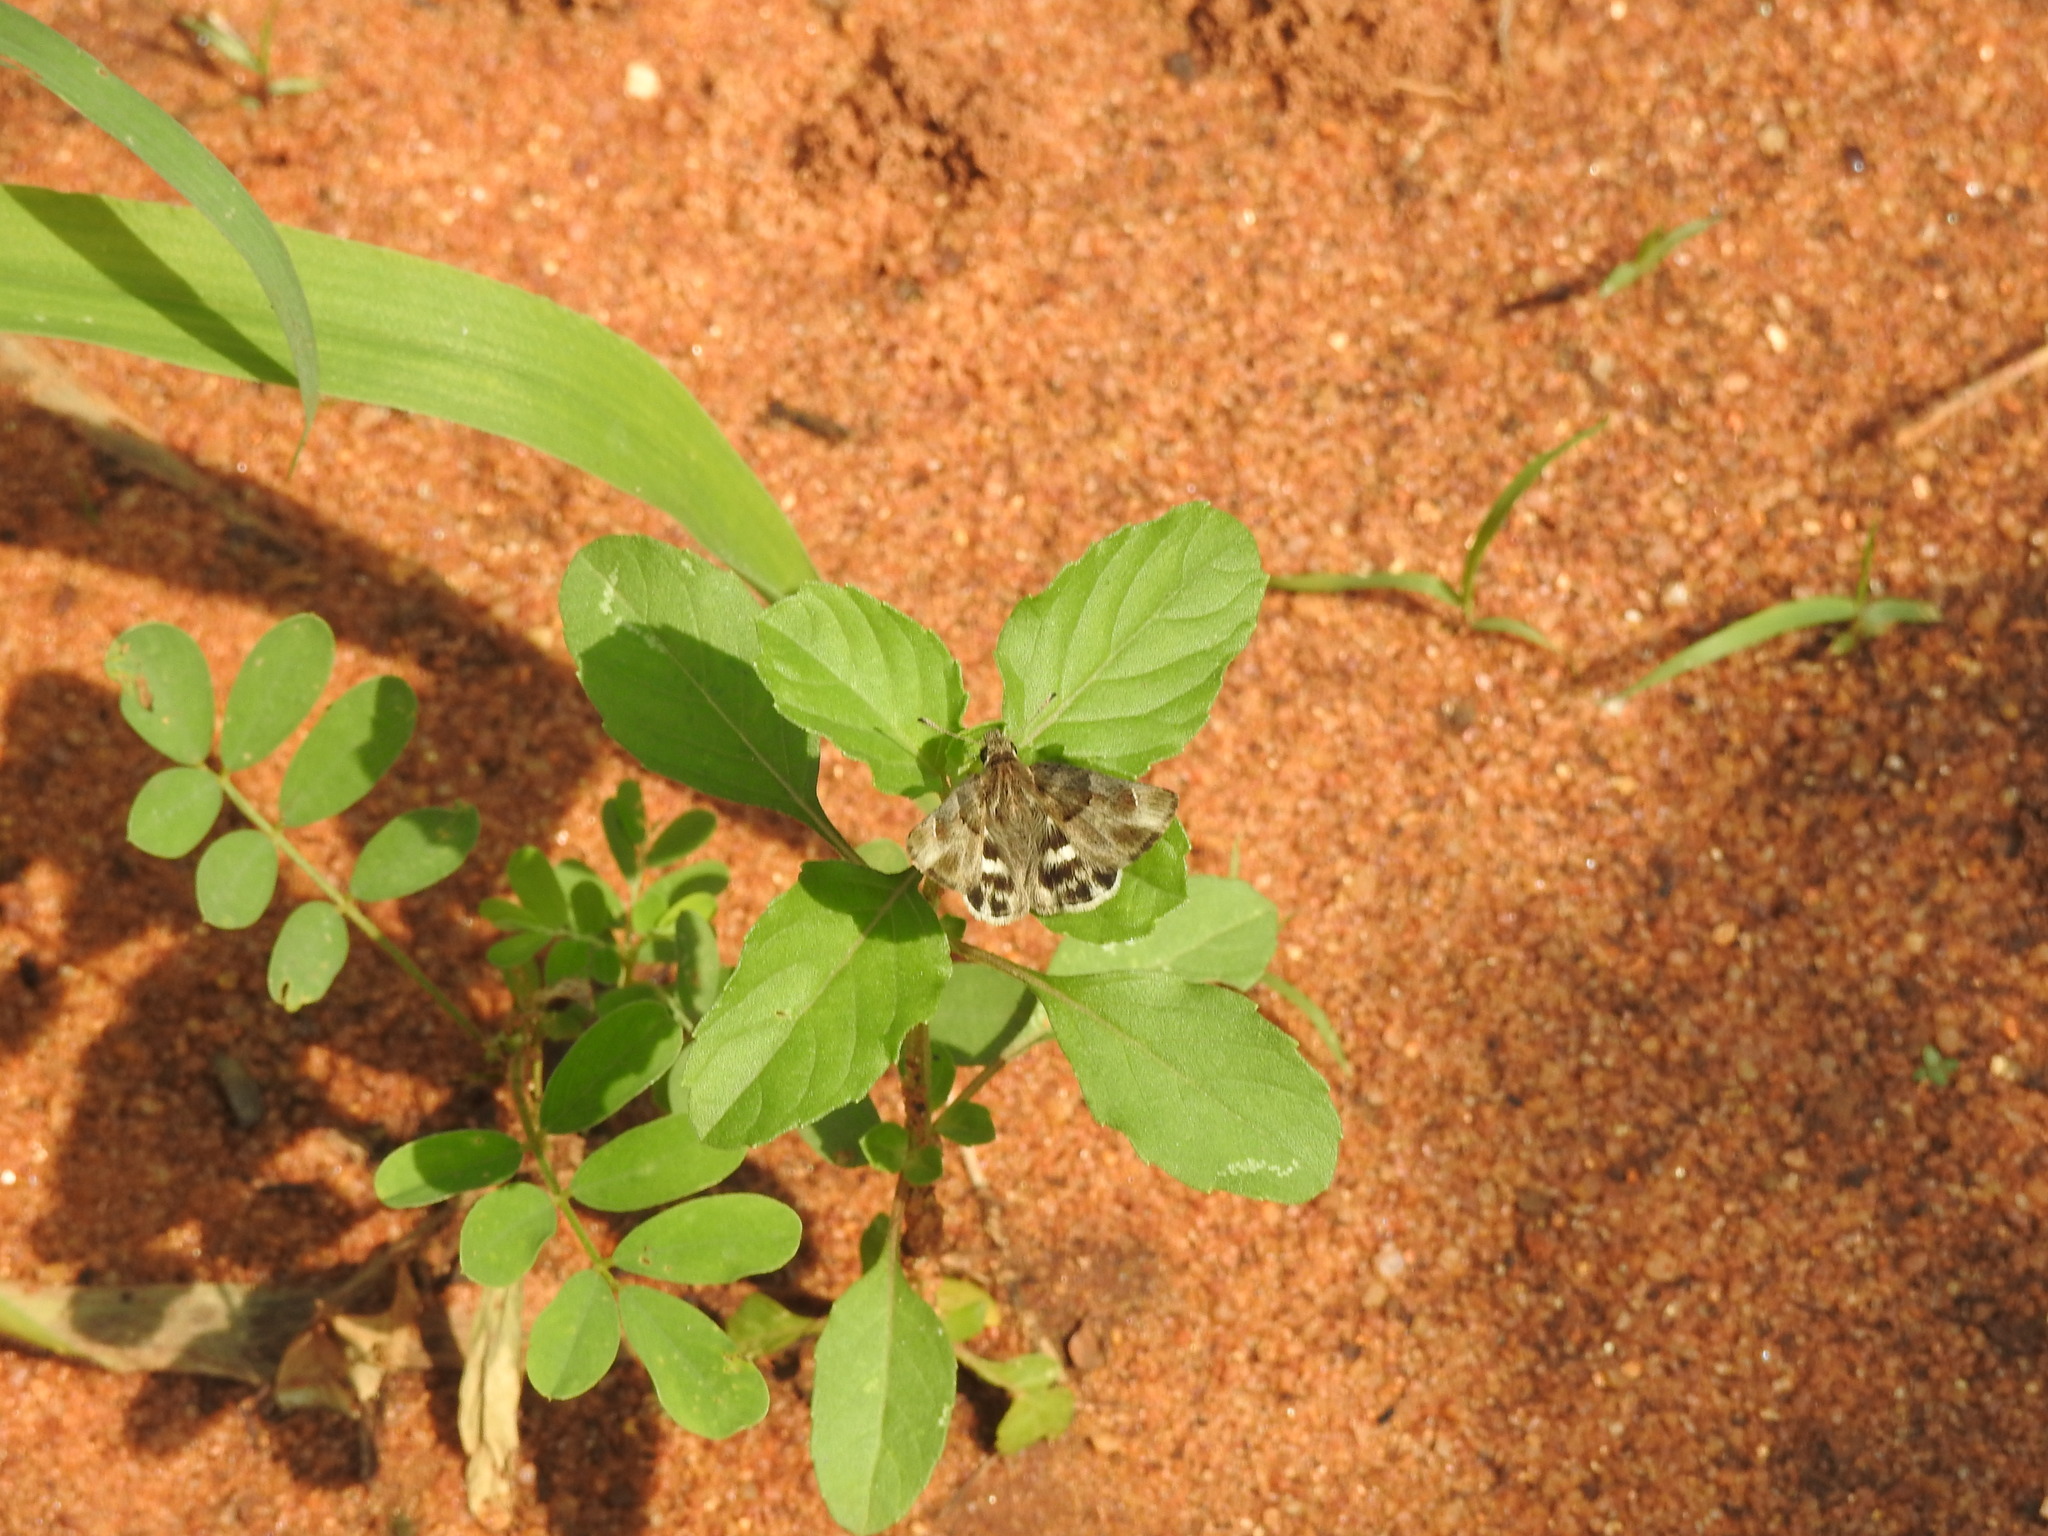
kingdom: Animalia
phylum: Arthropoda
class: Insecta
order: Lepidoptera
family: Hesperiidae
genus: Gomalia
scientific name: Gomalia elma
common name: Green-marbled skipper
